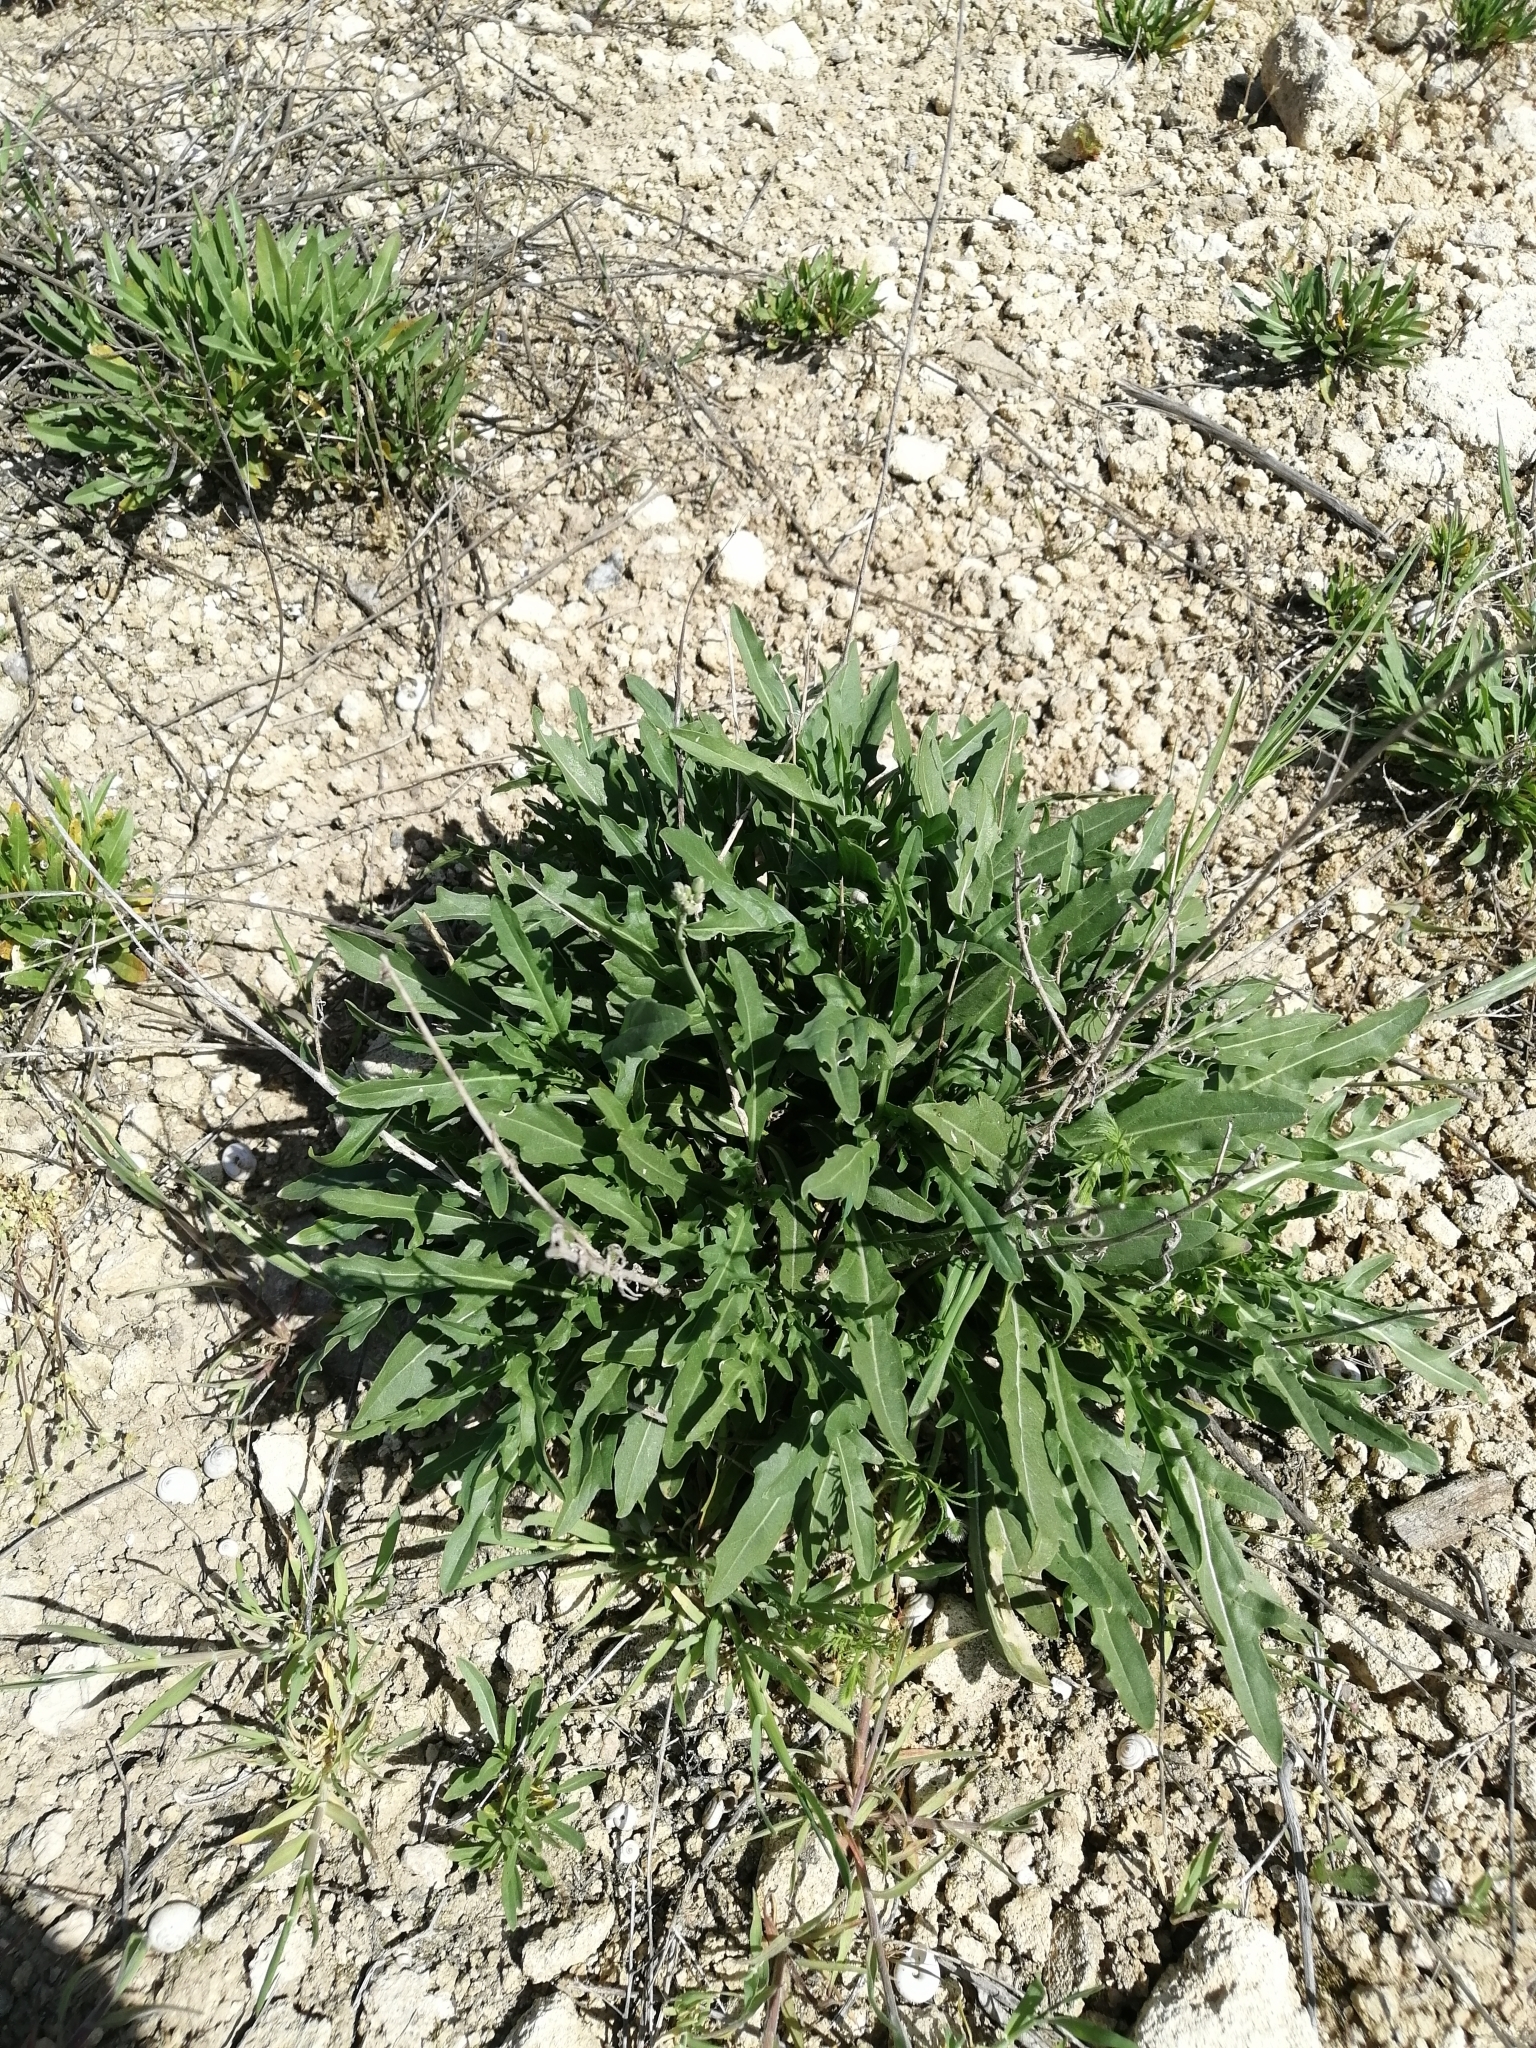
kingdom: Plantae
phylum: Tracheophyta
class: Magnoliopsida
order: Brassicales
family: Brassicaceae
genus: Diplotaxis
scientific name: Diplotaxis tenuifolia
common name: Perennial wall-rocket
